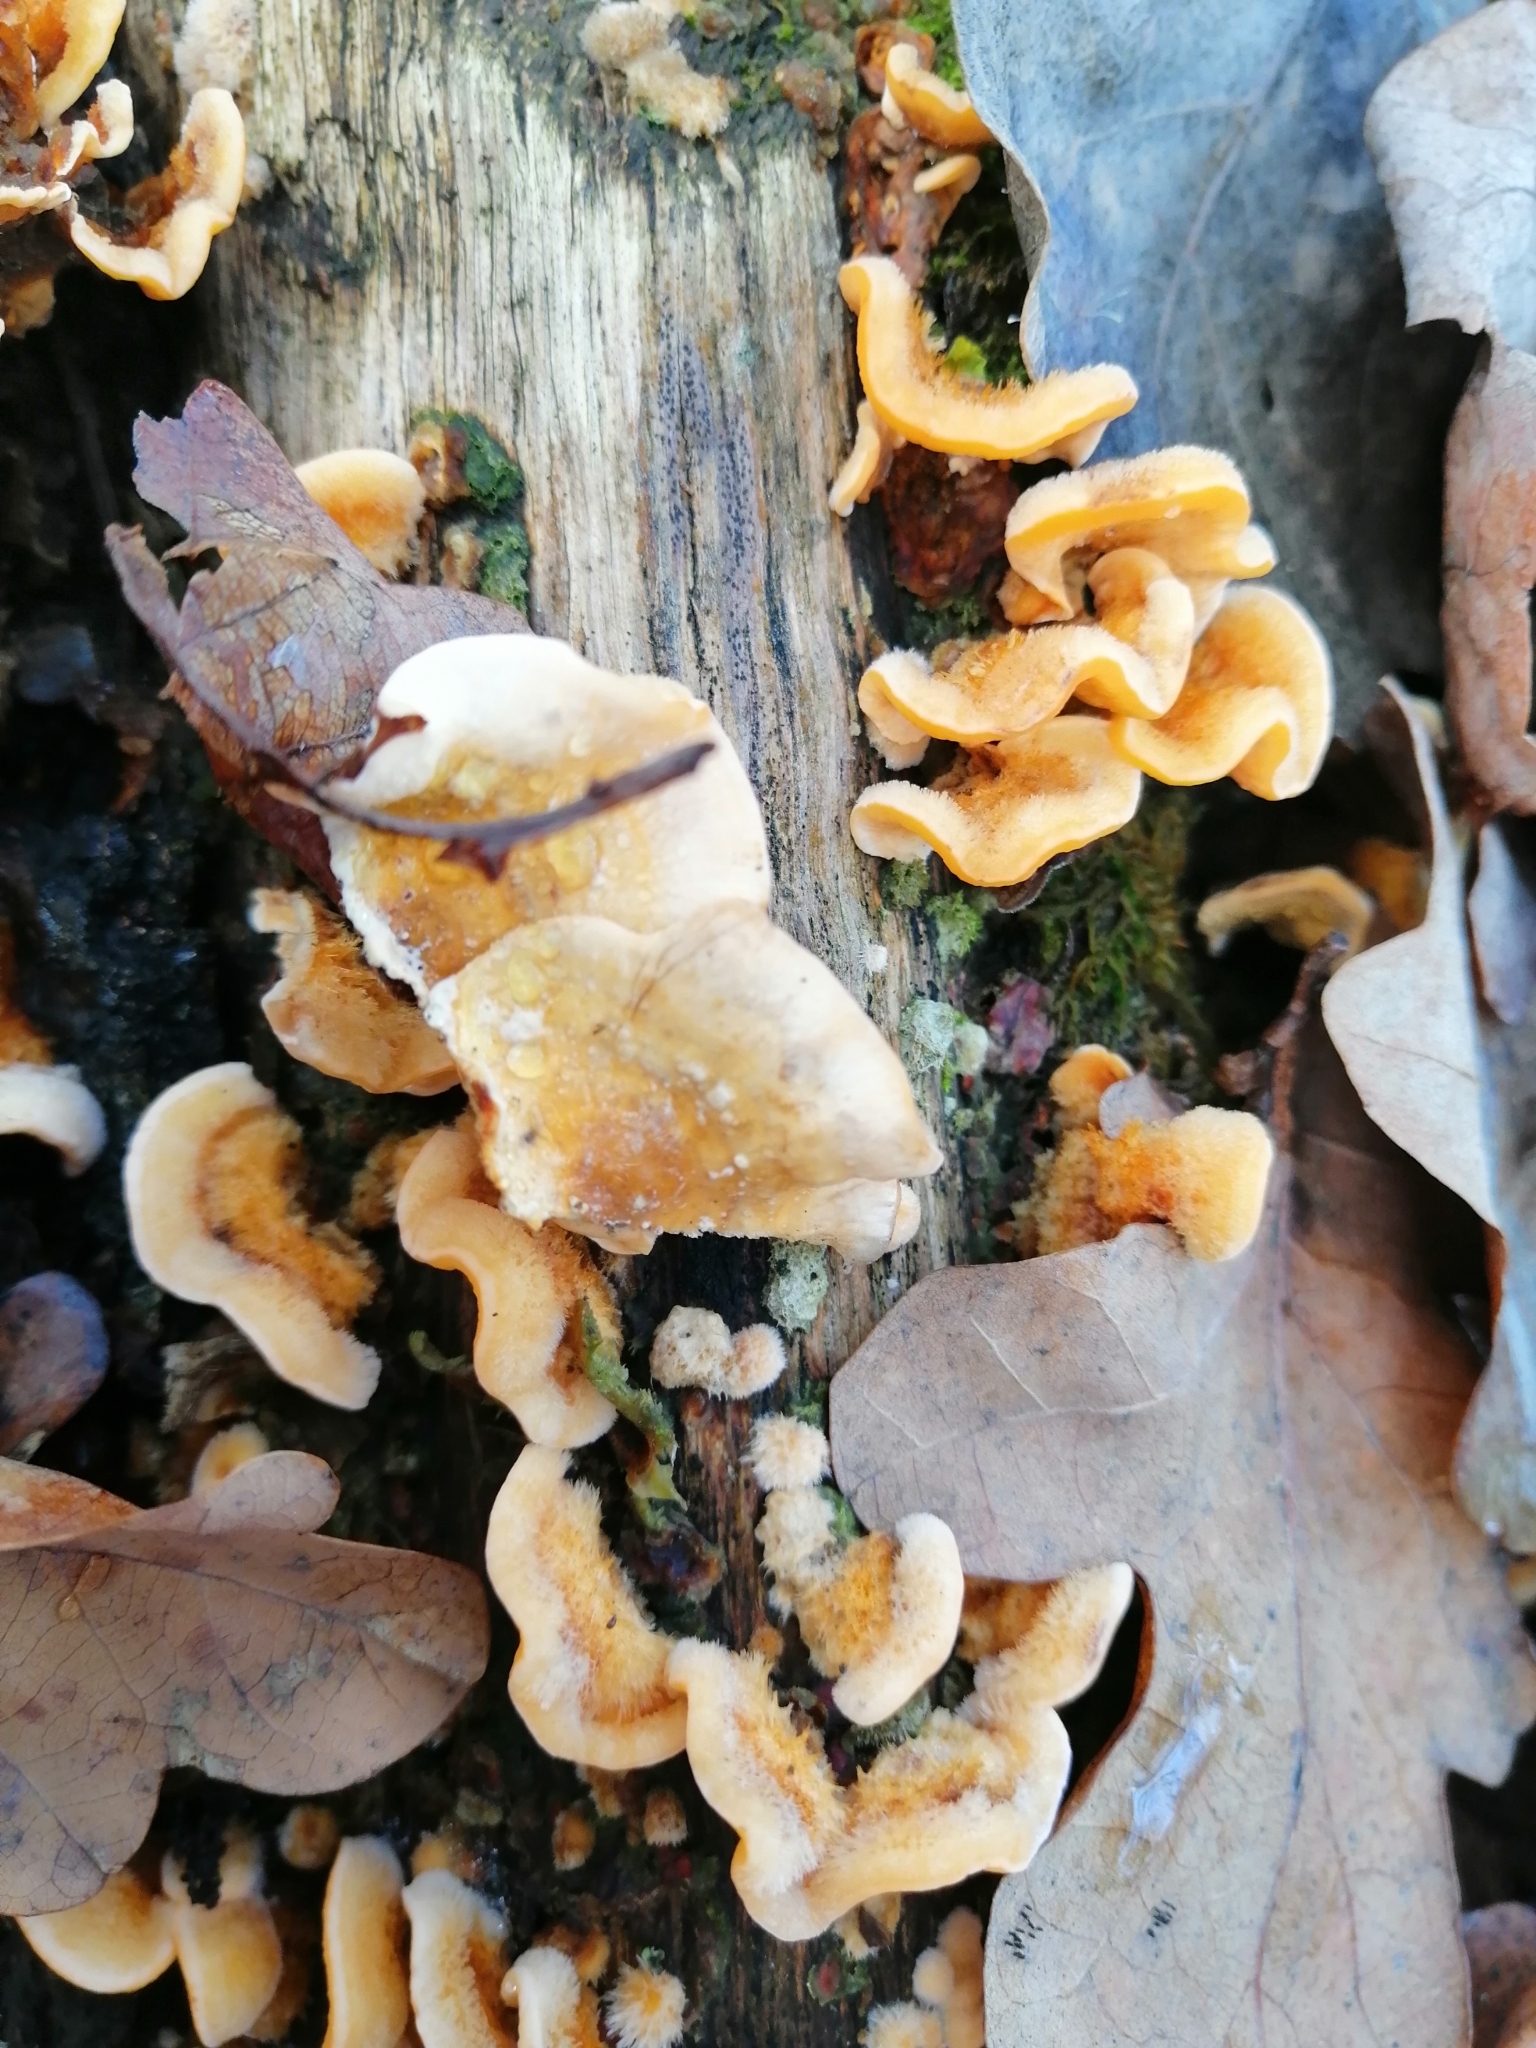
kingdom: Fungi
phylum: Basidiomycota
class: Agaricomycetes
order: Russulales
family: Stereaceae
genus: Stereum
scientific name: Stereum hirsutum
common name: Hairy curtain crust
